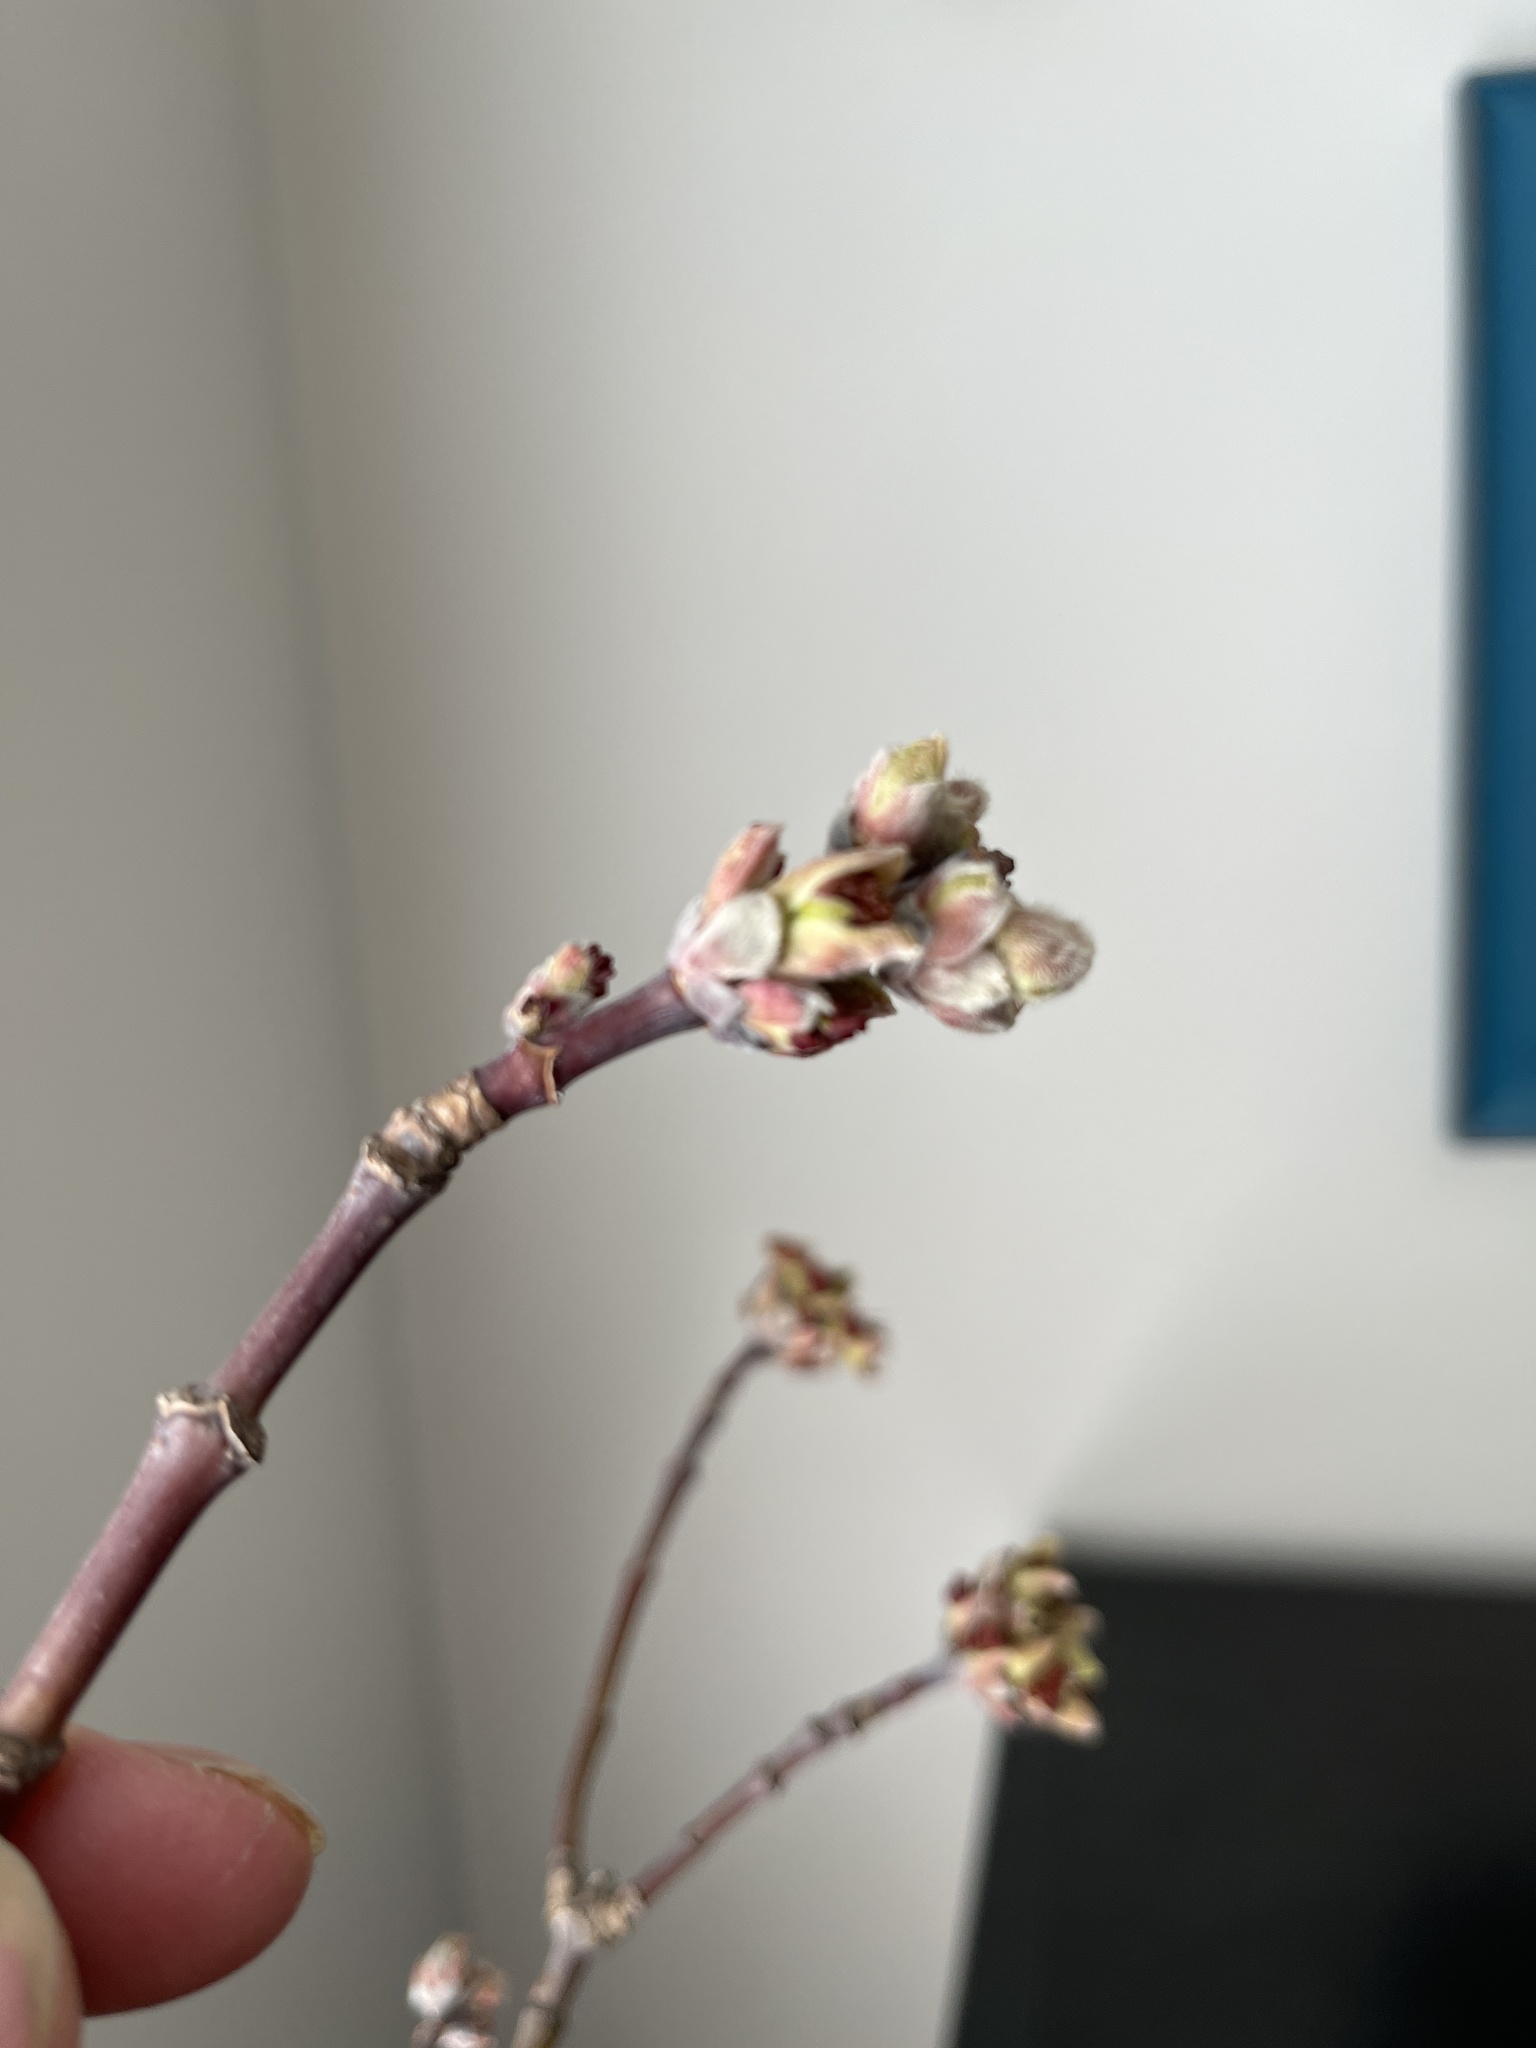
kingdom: Plantae
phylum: Tracheophyta
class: Magnoliopsida
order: Sapindales
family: Sapindaceae
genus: Acer
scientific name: Acer negundo
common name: Ashleaf maple
